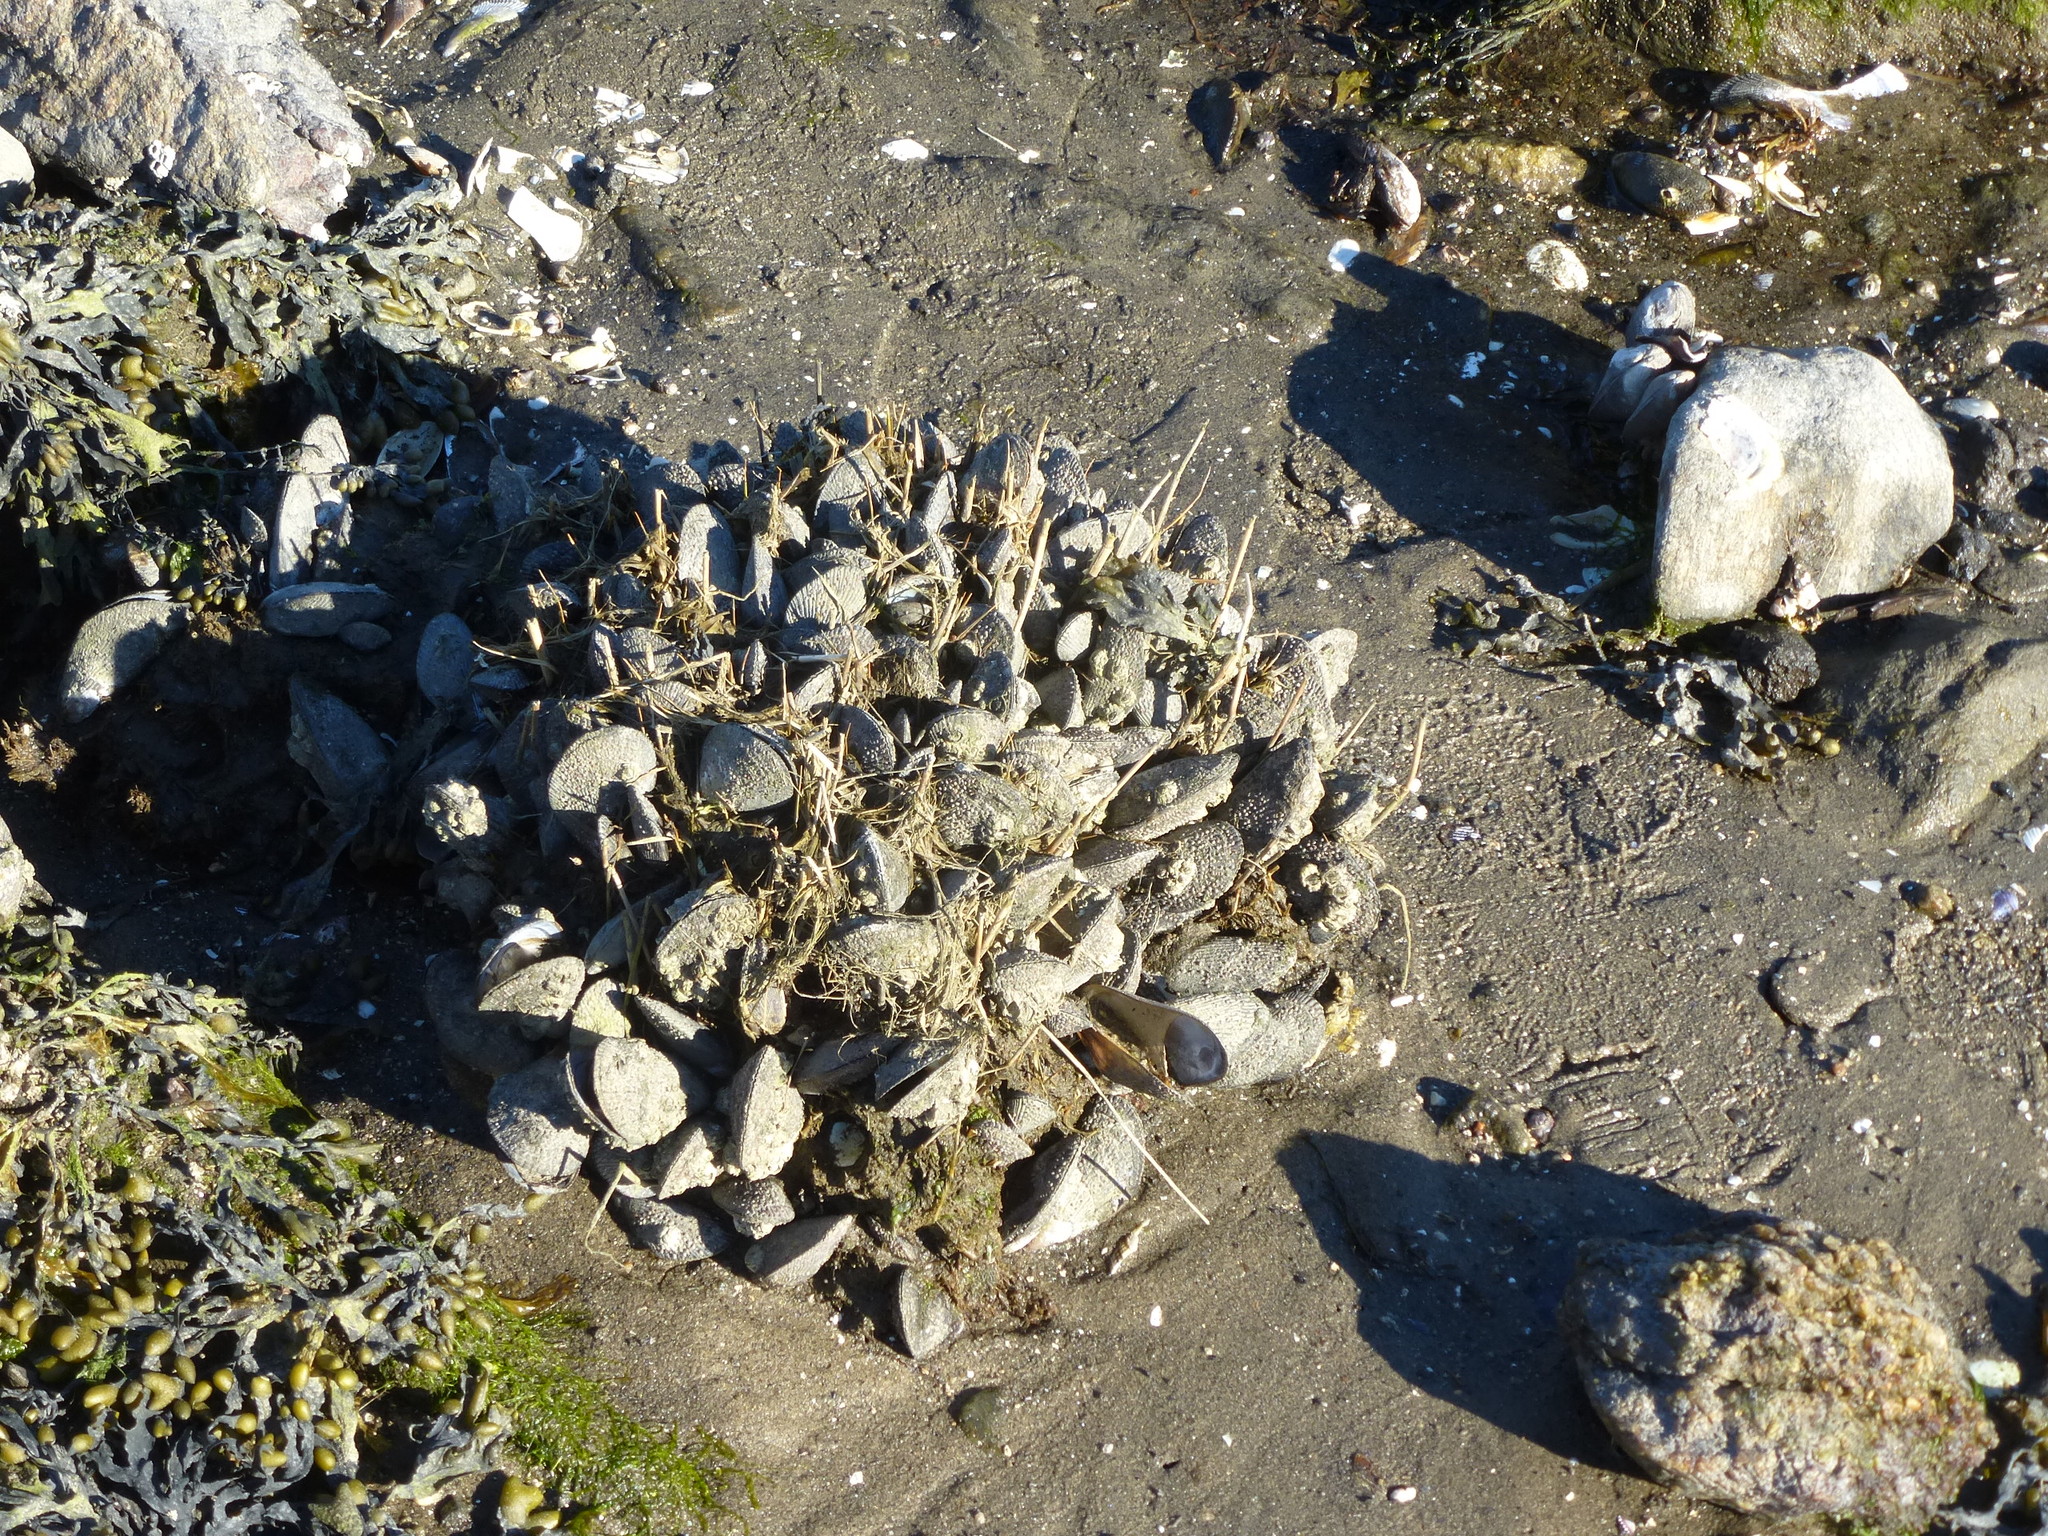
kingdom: Animalia
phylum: Mollusca
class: Bivalvia
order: Mytilida
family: Mytilidae
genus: Geukensia
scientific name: Geukensia demissa
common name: Ribbed mussel
